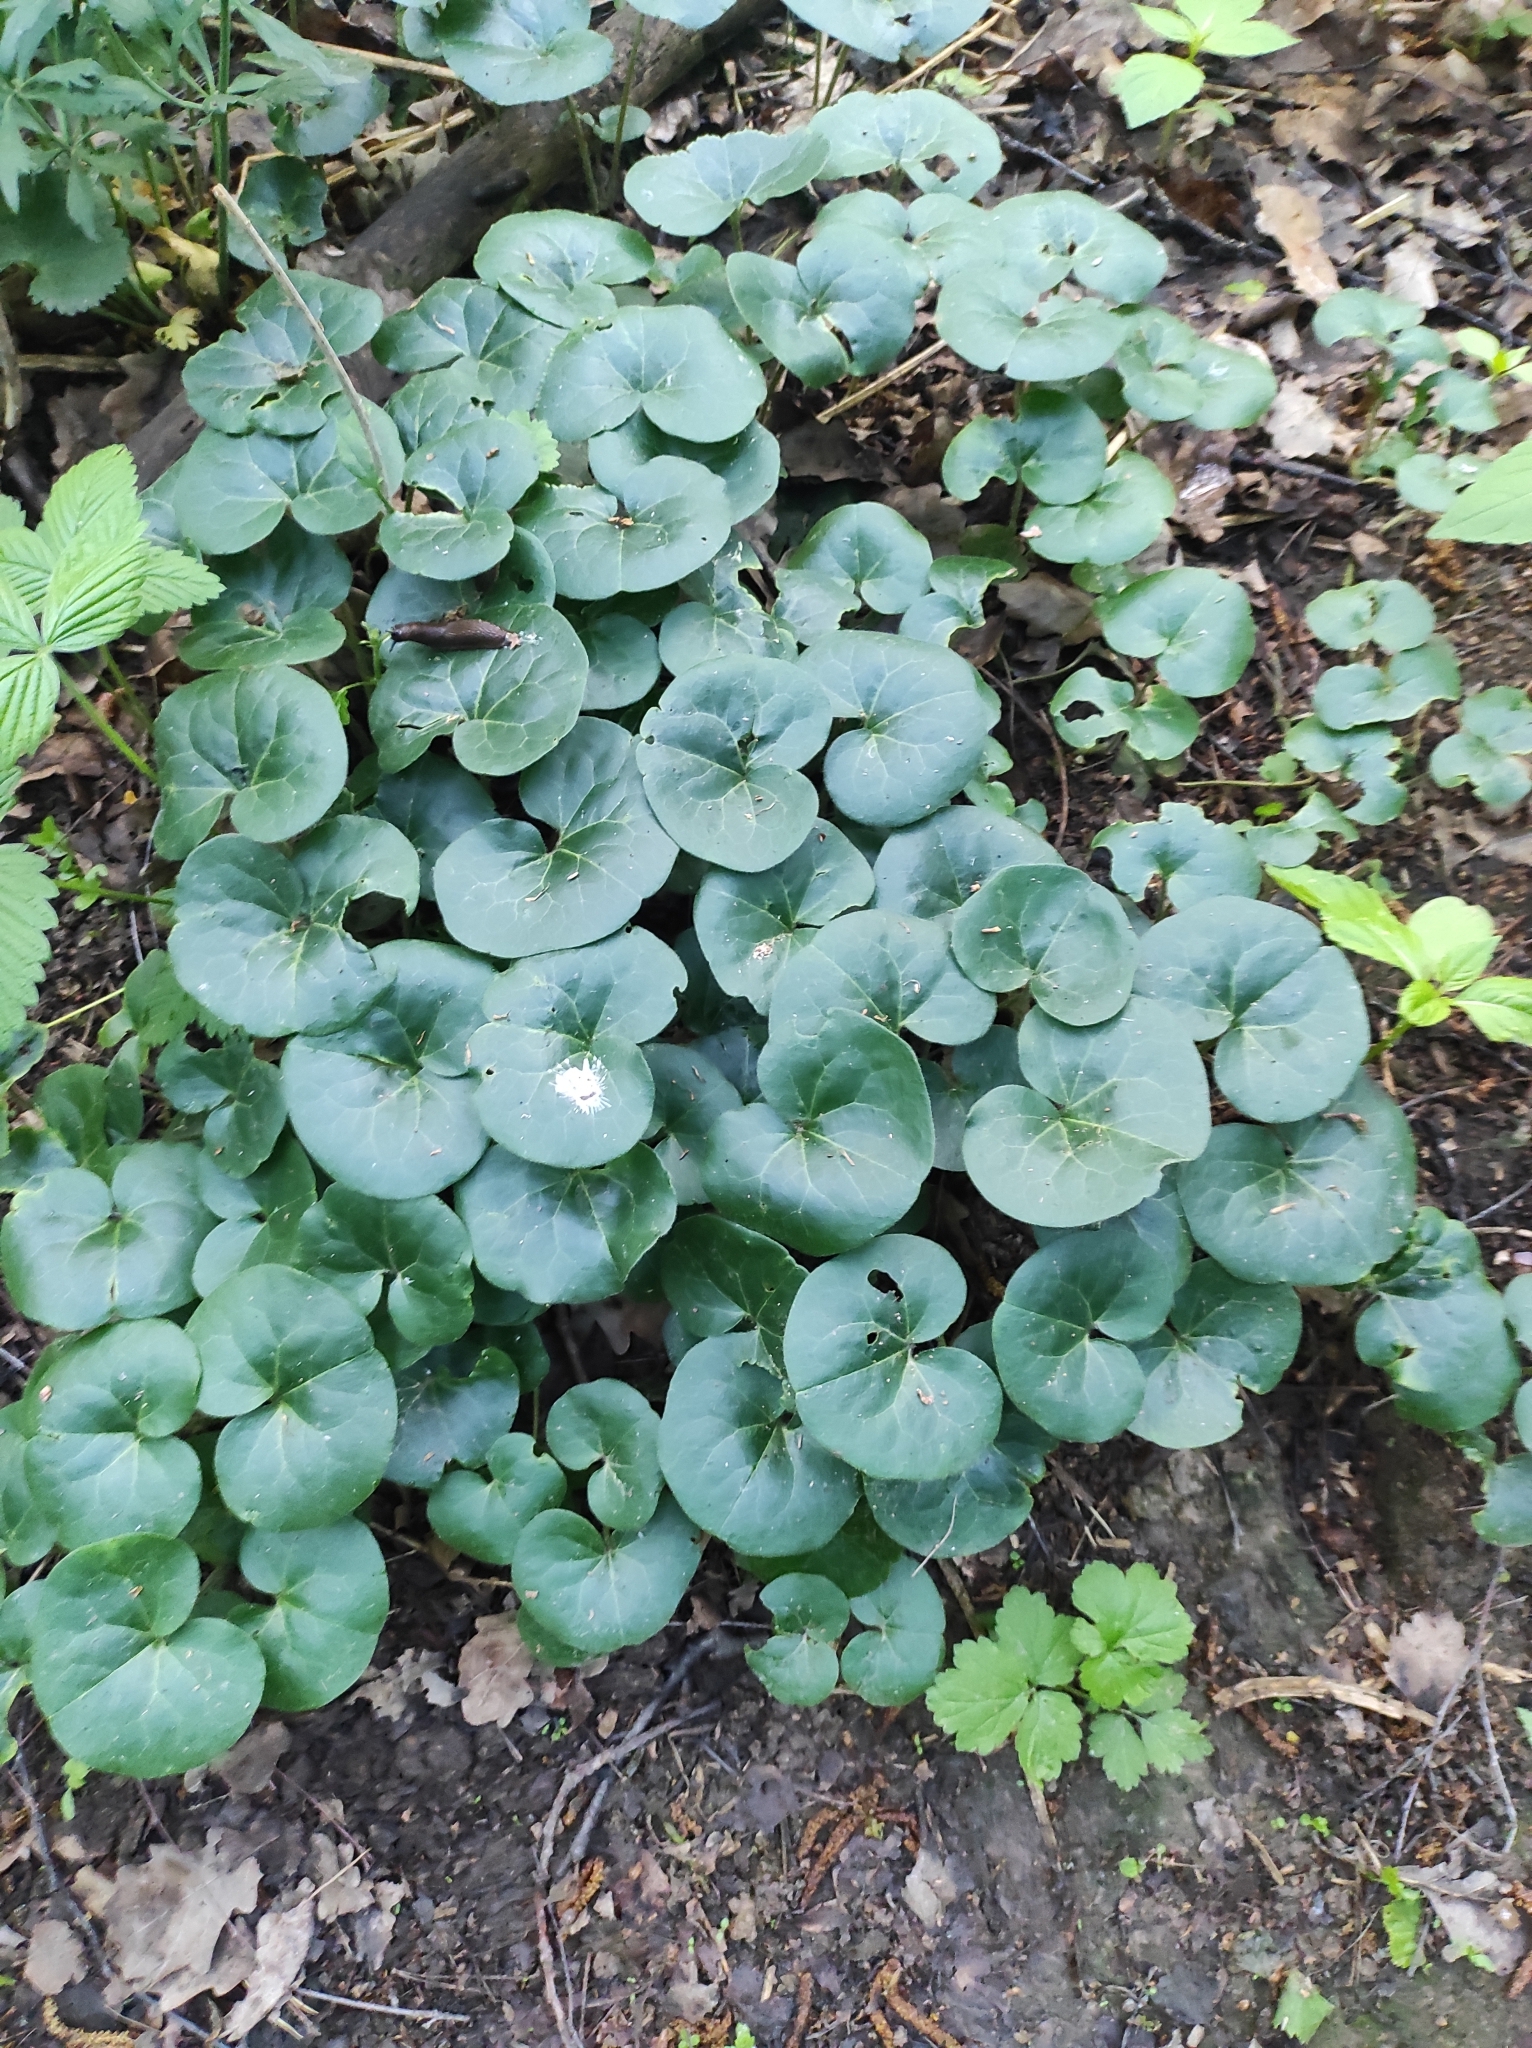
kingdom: Plantae
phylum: Tracheophyta
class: Magnoliopsida
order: Piperales
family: Aristolochiaceae
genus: Asarum
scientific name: Asarum europaeum
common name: Asarabacca
